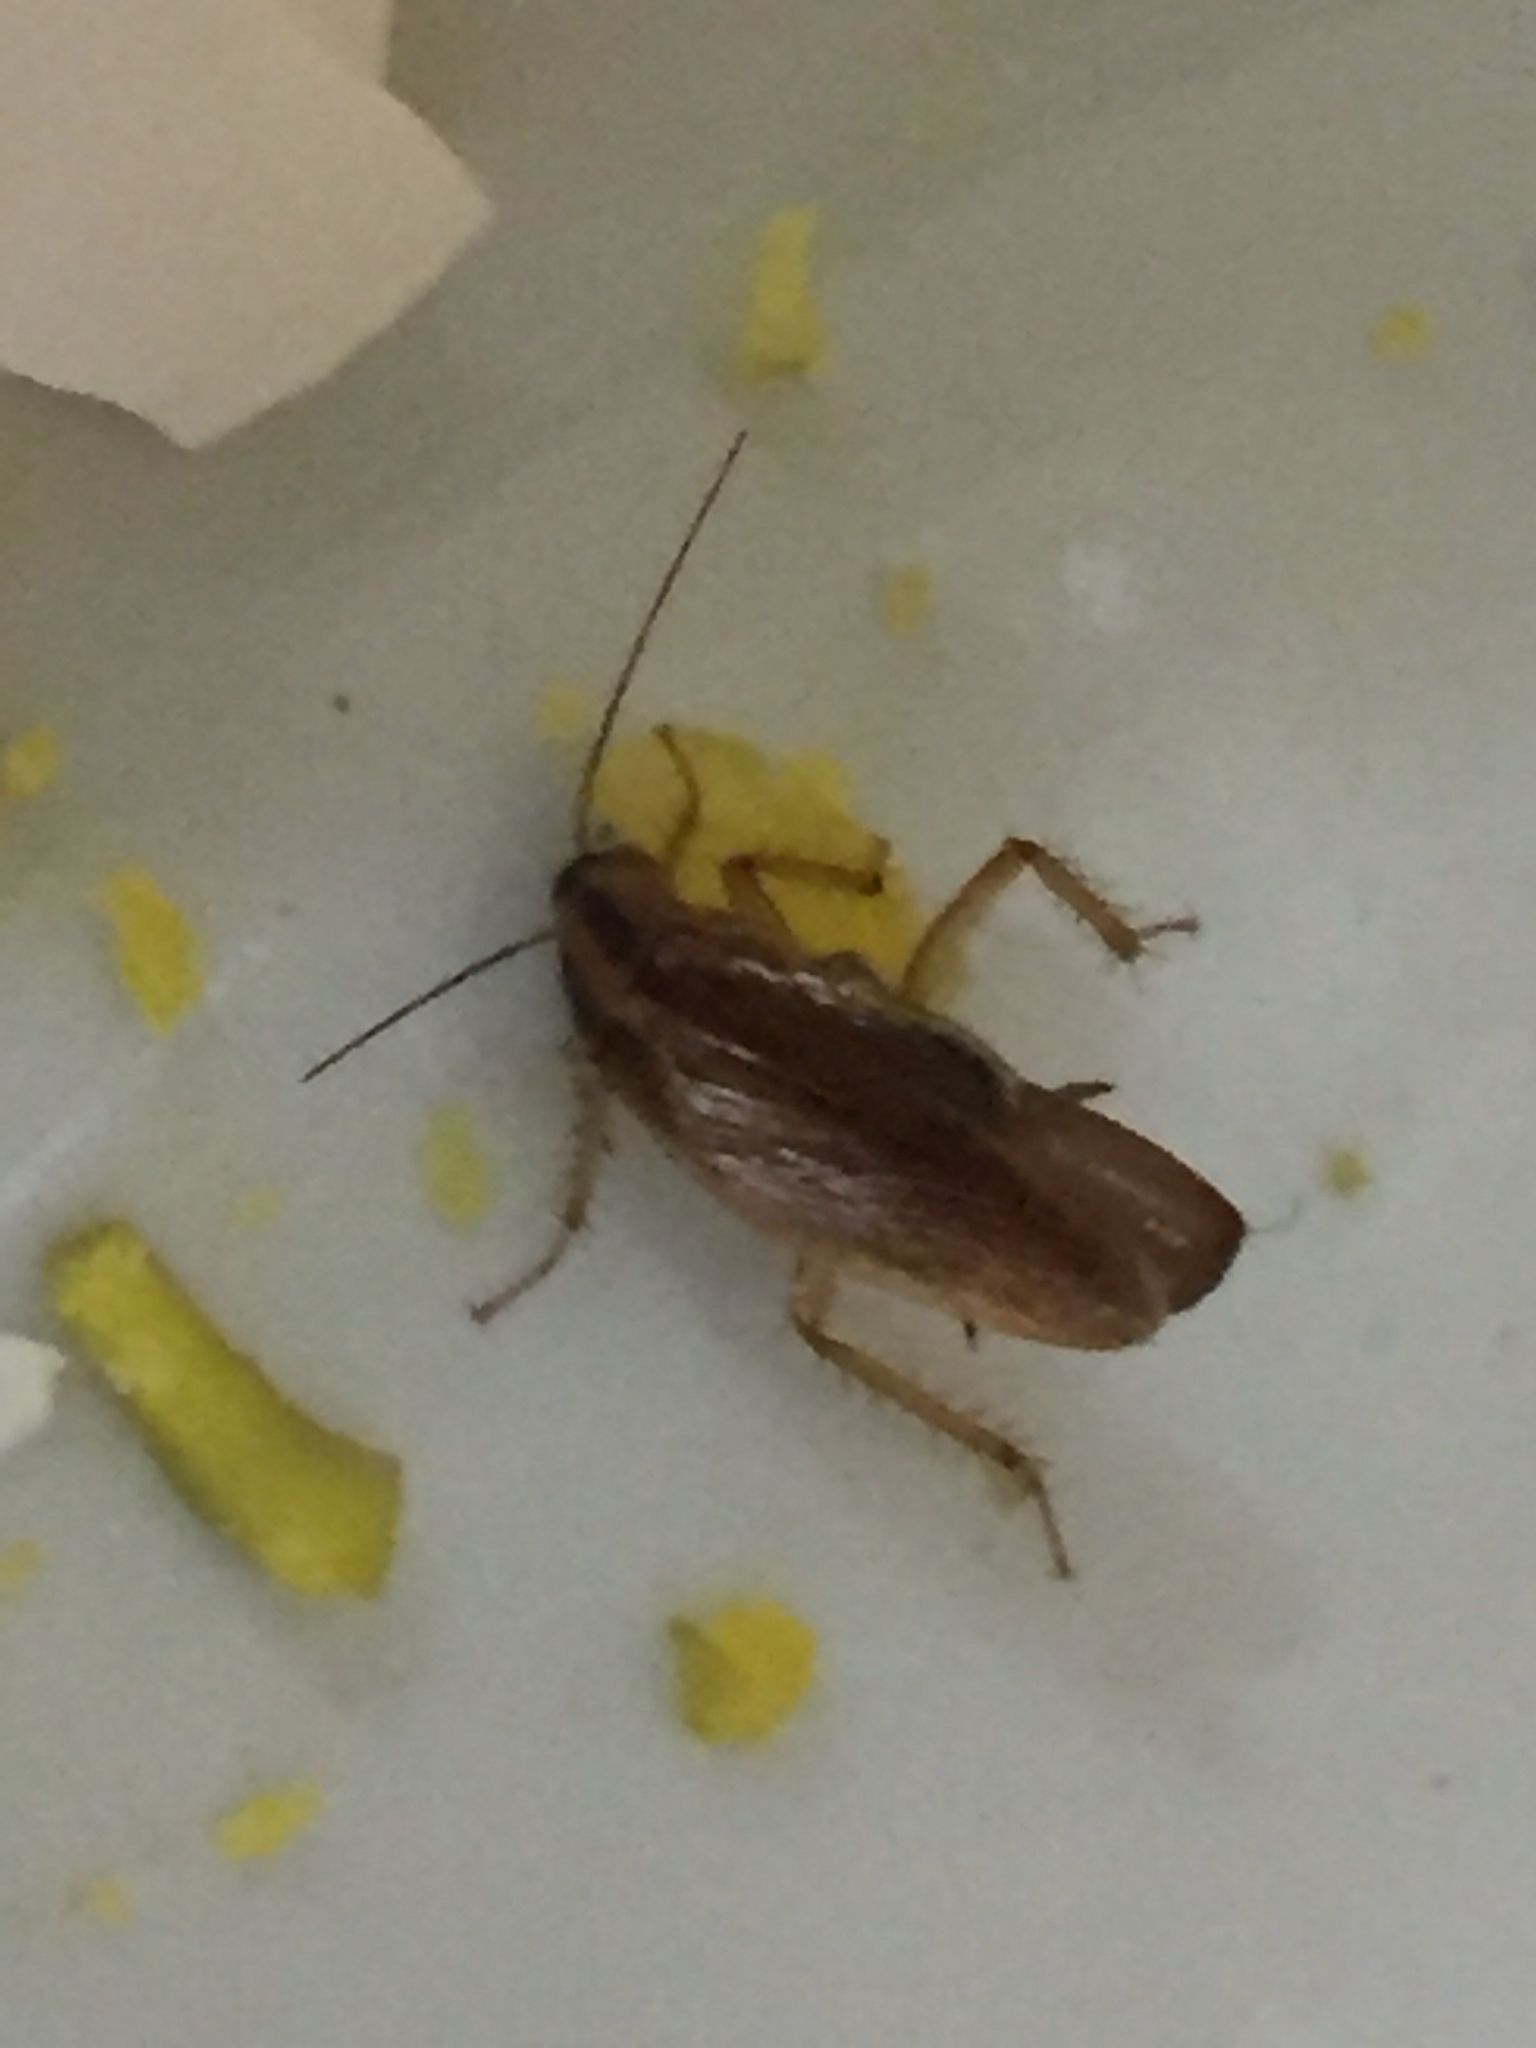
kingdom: Animalia
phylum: Arthropoda
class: Insecta
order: Blattodea
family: Ectobiidae
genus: Blattella
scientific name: Blattella germanica
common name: German cockroach
